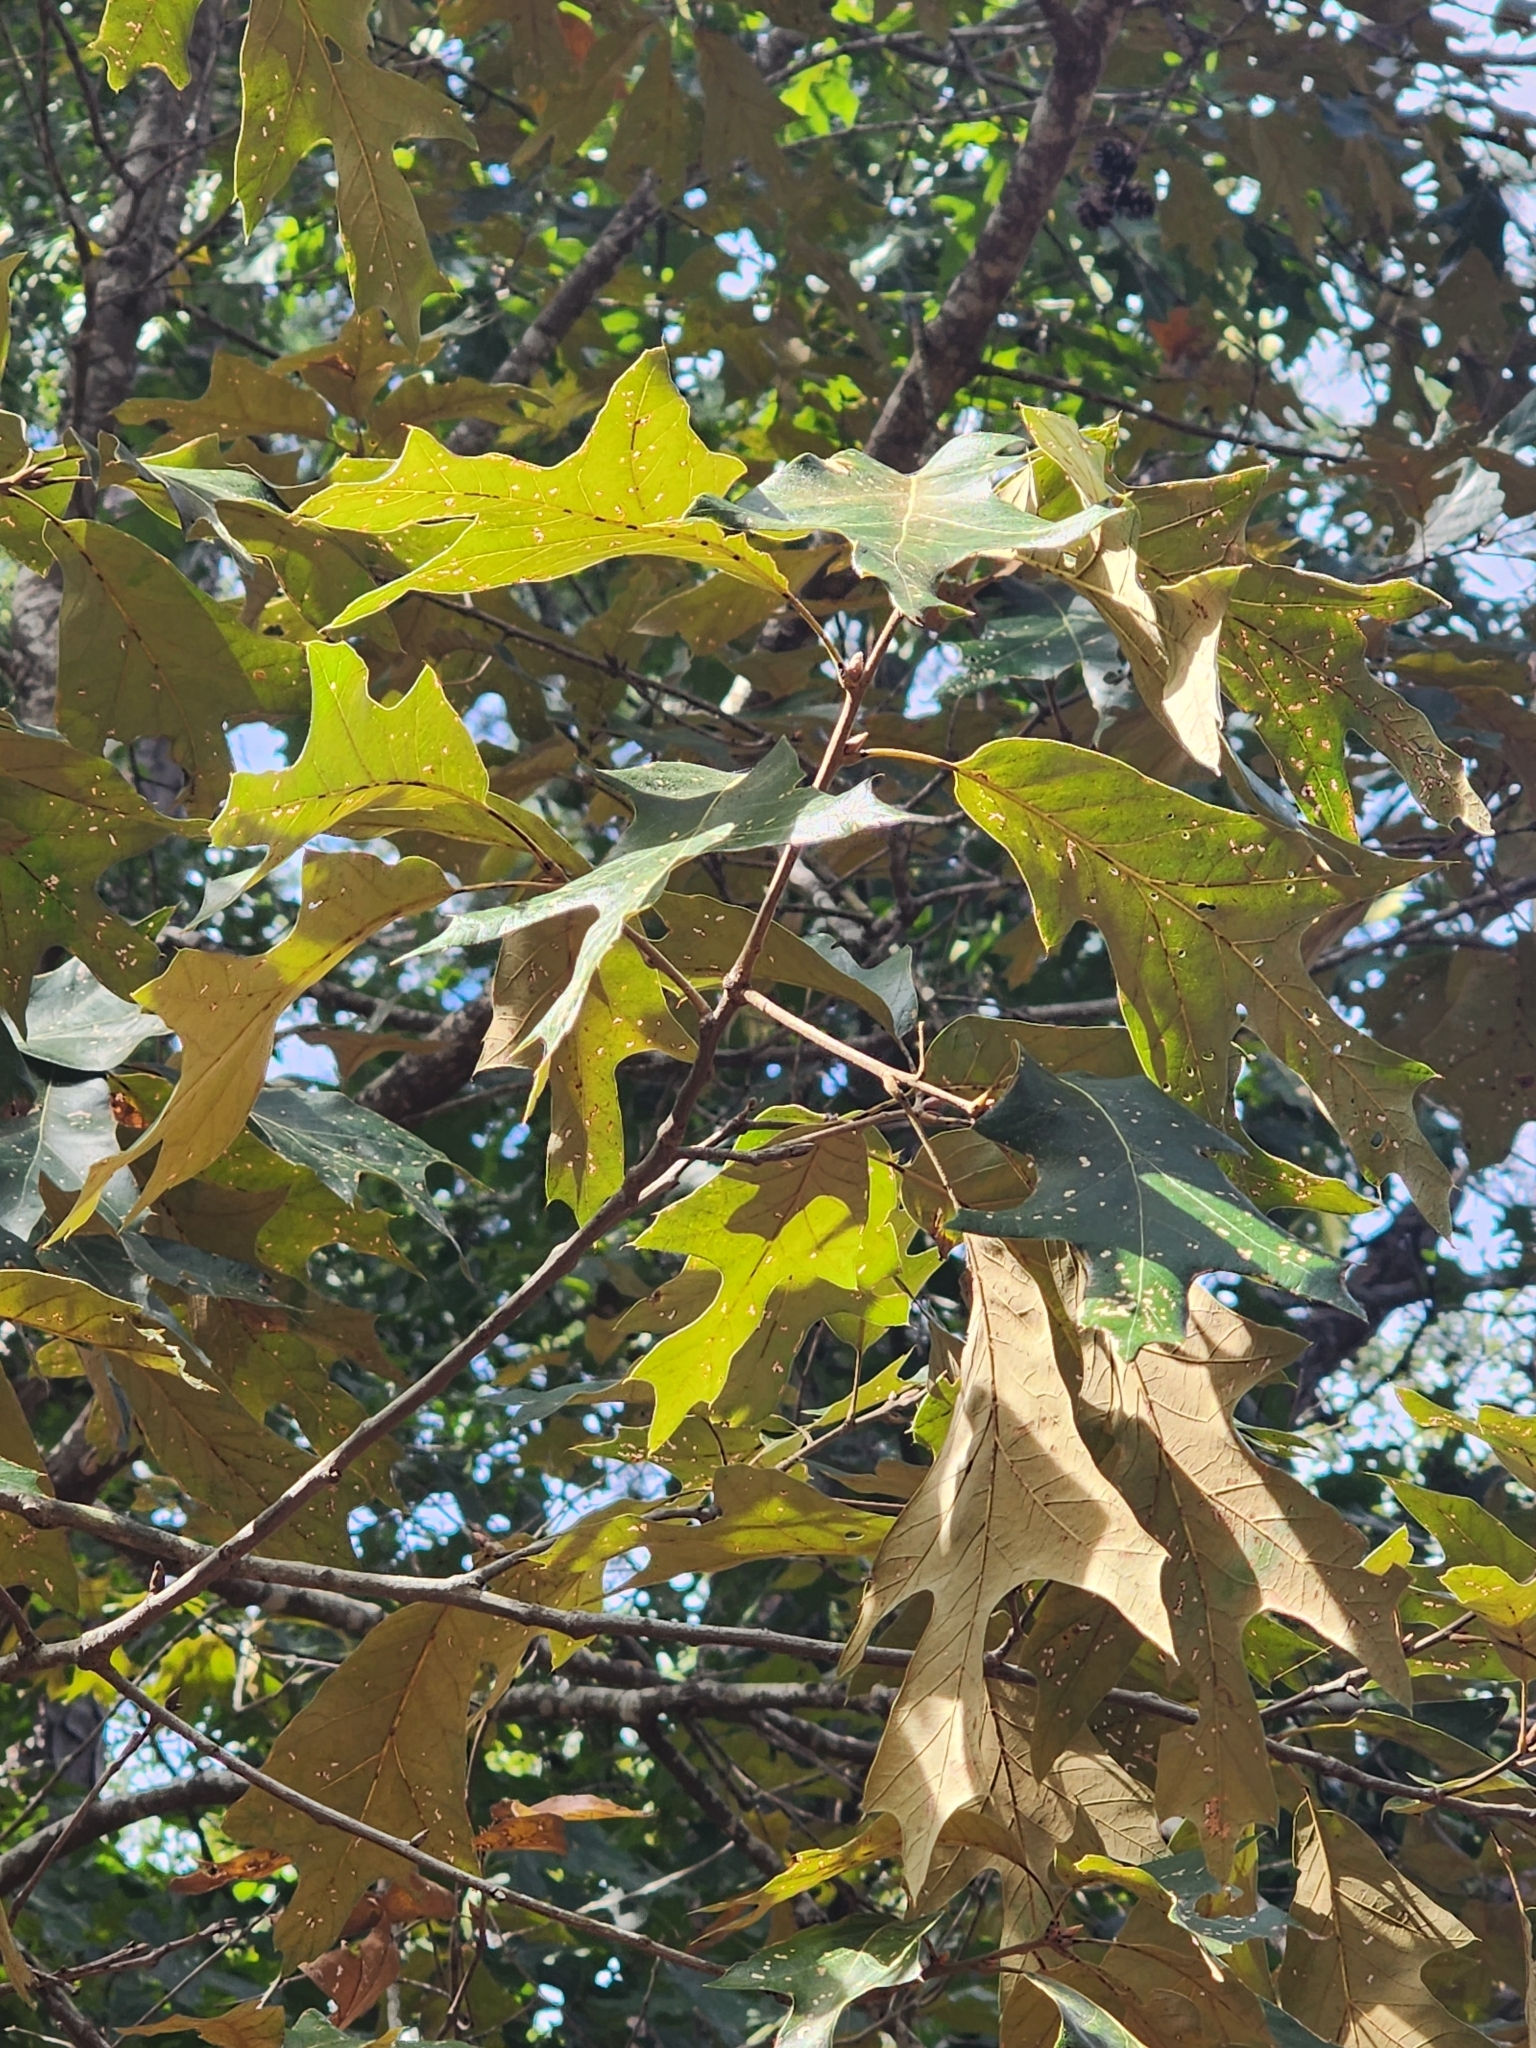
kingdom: Plantae
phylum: Tracheophyta
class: Magnoliopsida
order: Fagales
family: Fagaceae
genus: Quercus
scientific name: Quercus falcata
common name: Southern red oak
